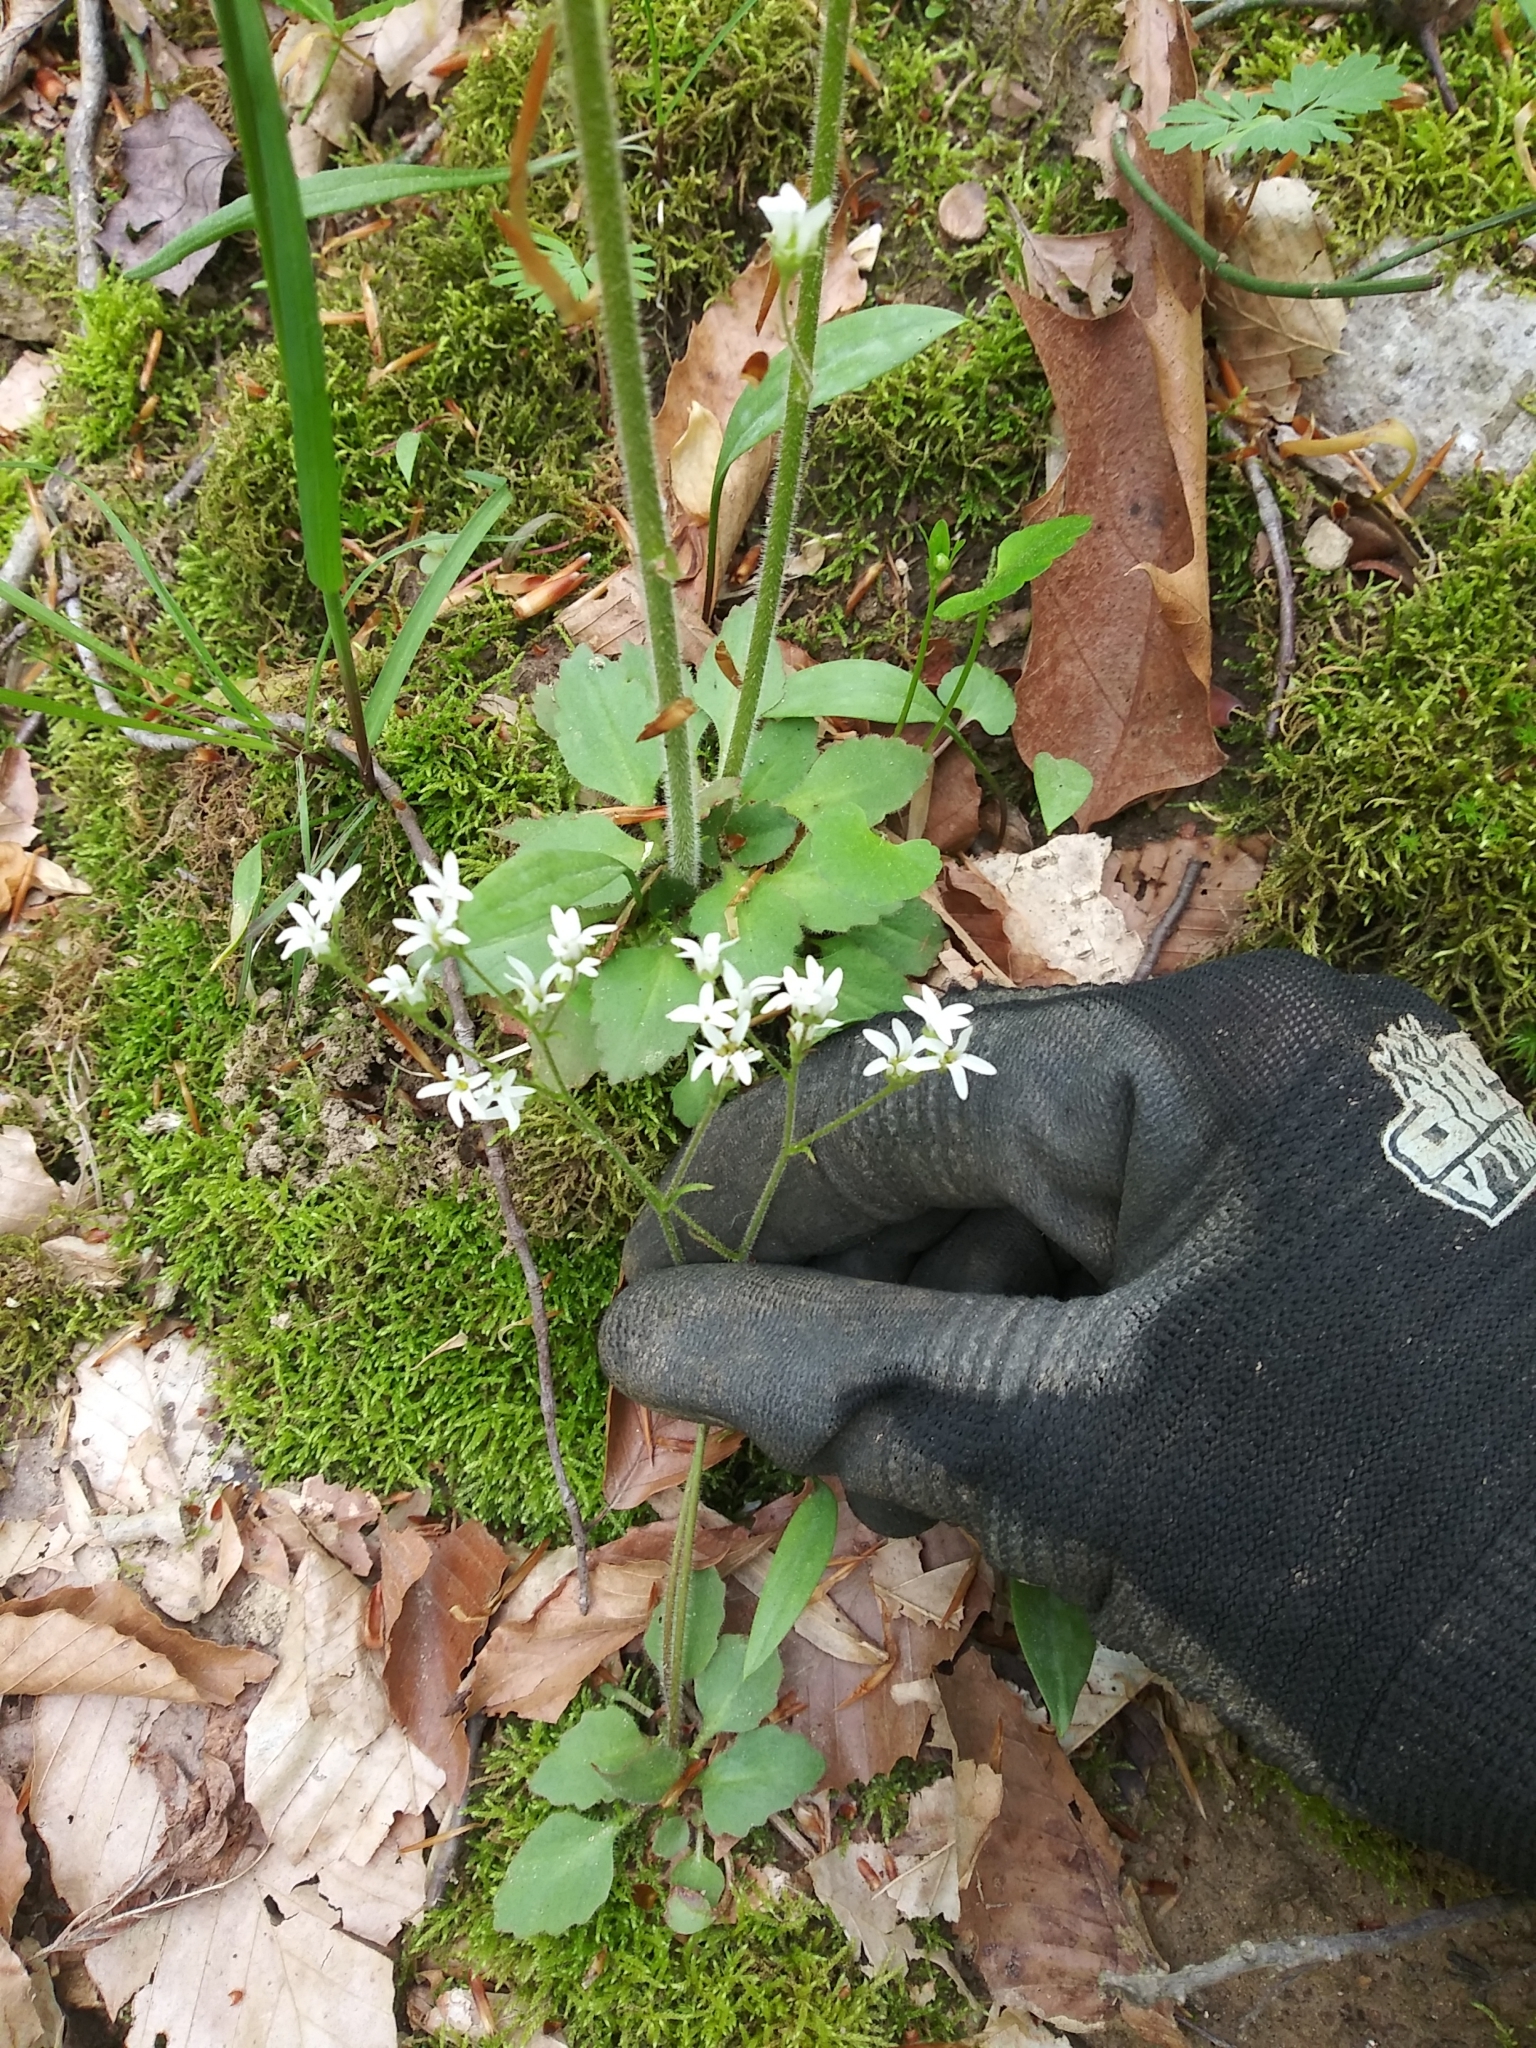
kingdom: Plantae
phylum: Tracheophyta
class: Magnoliopsida
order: Saxifragales
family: Saxifragaceae
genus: Micranthes
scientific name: Micranthes virginiensis
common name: Early saxifrage
